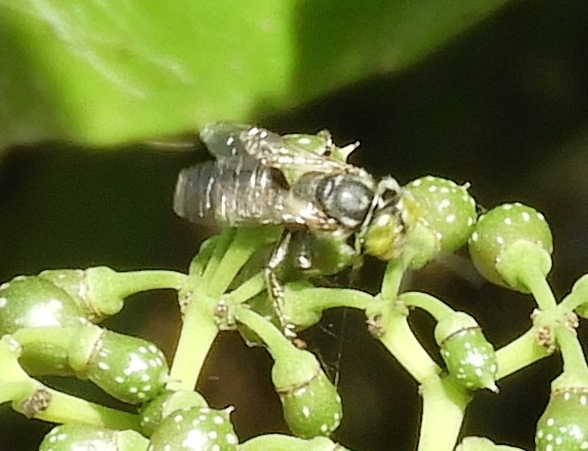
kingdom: Animalia
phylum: Arthropoda
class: Insecta
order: Hymenoptera
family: Crabronidae
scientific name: Crabronidae
